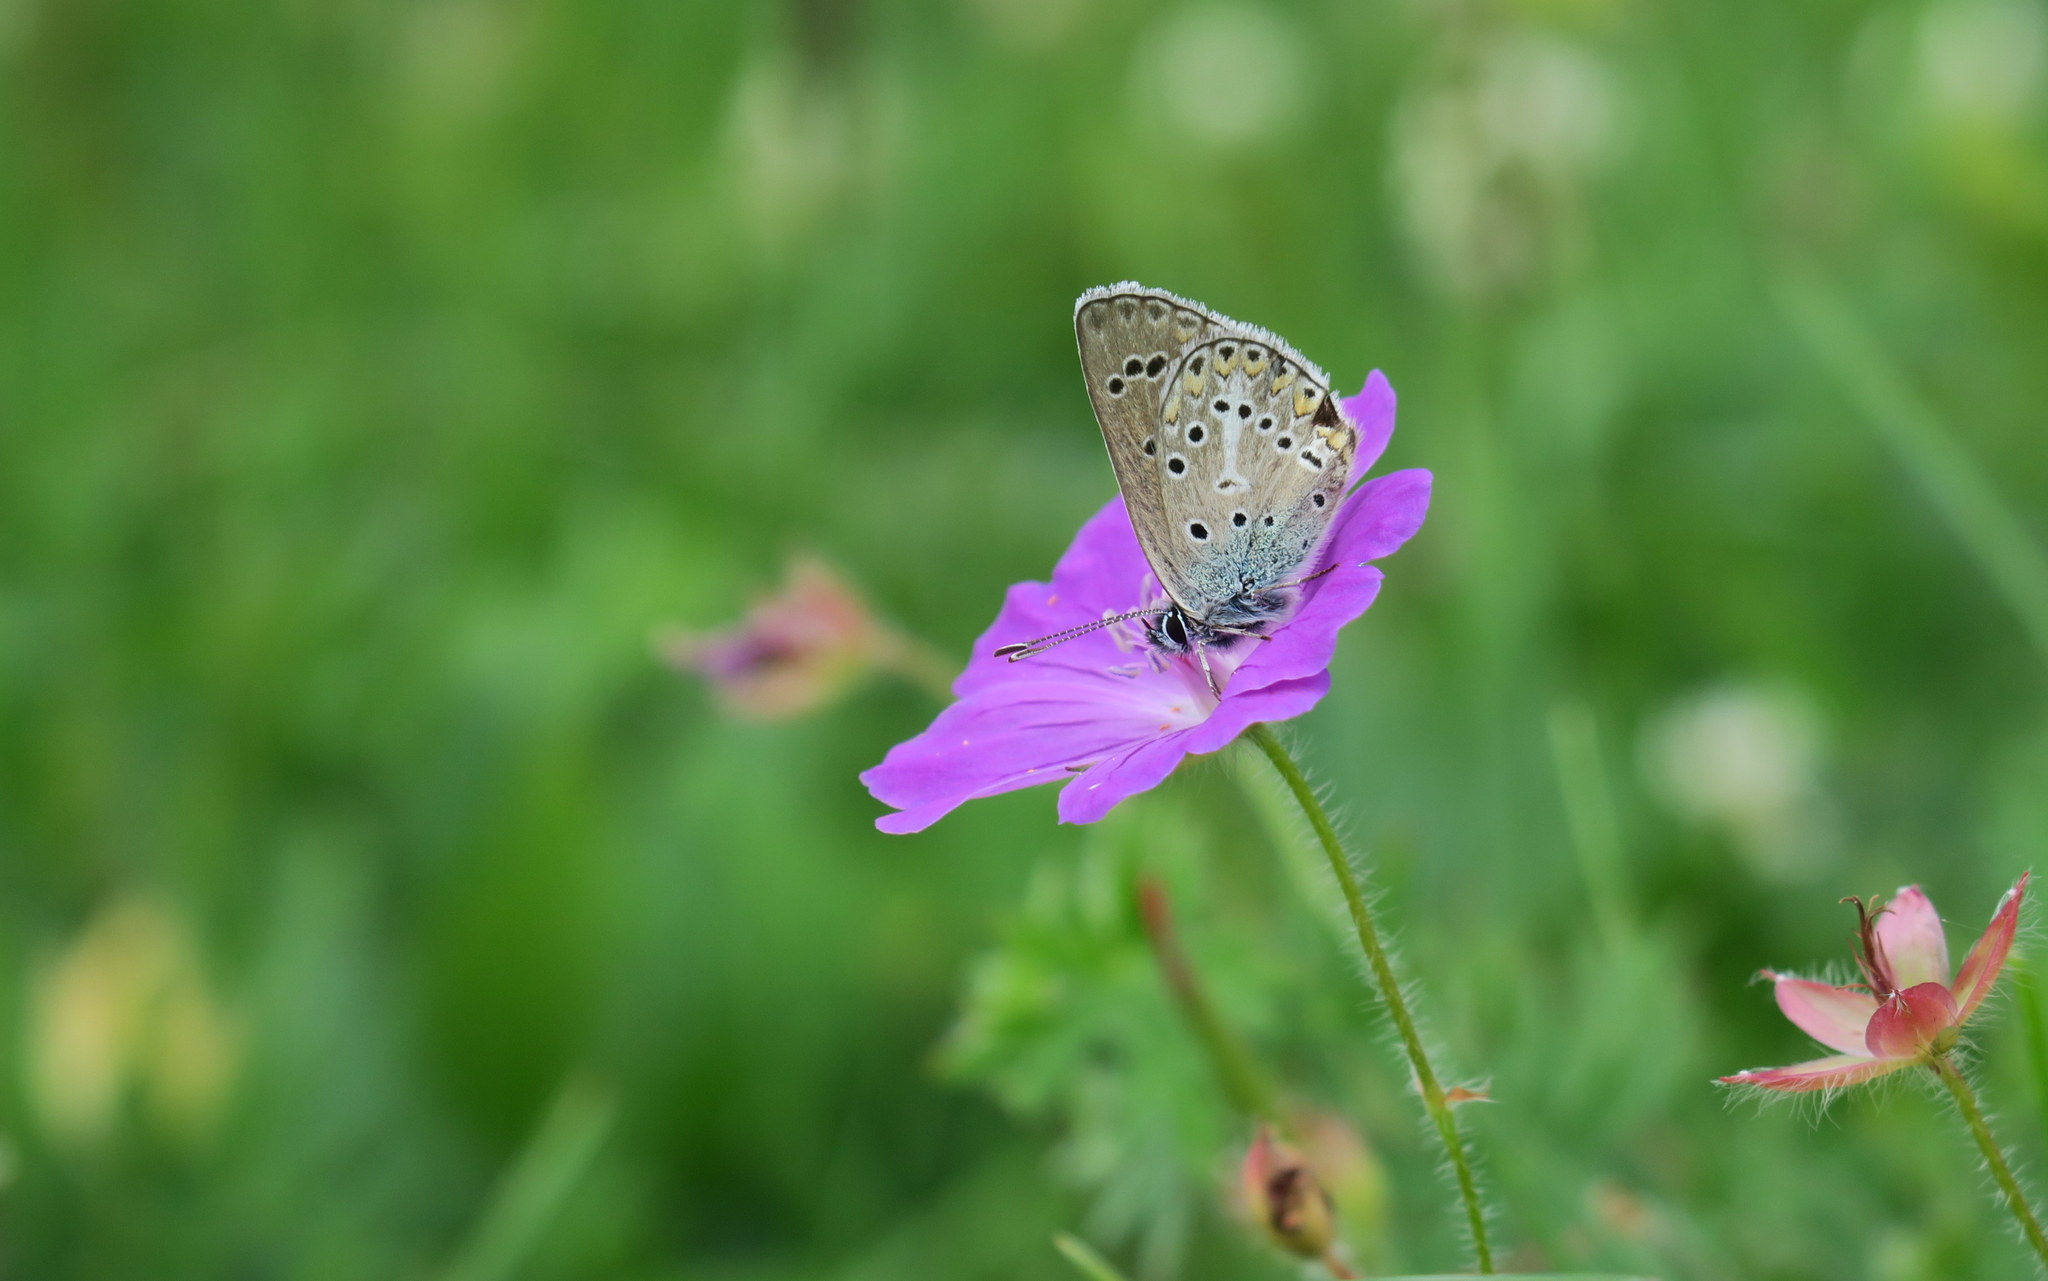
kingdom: Animalia
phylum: Arthropoda
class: Insecta
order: Lepidoptera
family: Lycaenidae
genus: Eumedonia
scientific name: Eumedonia eumedon
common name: Geranium argus
